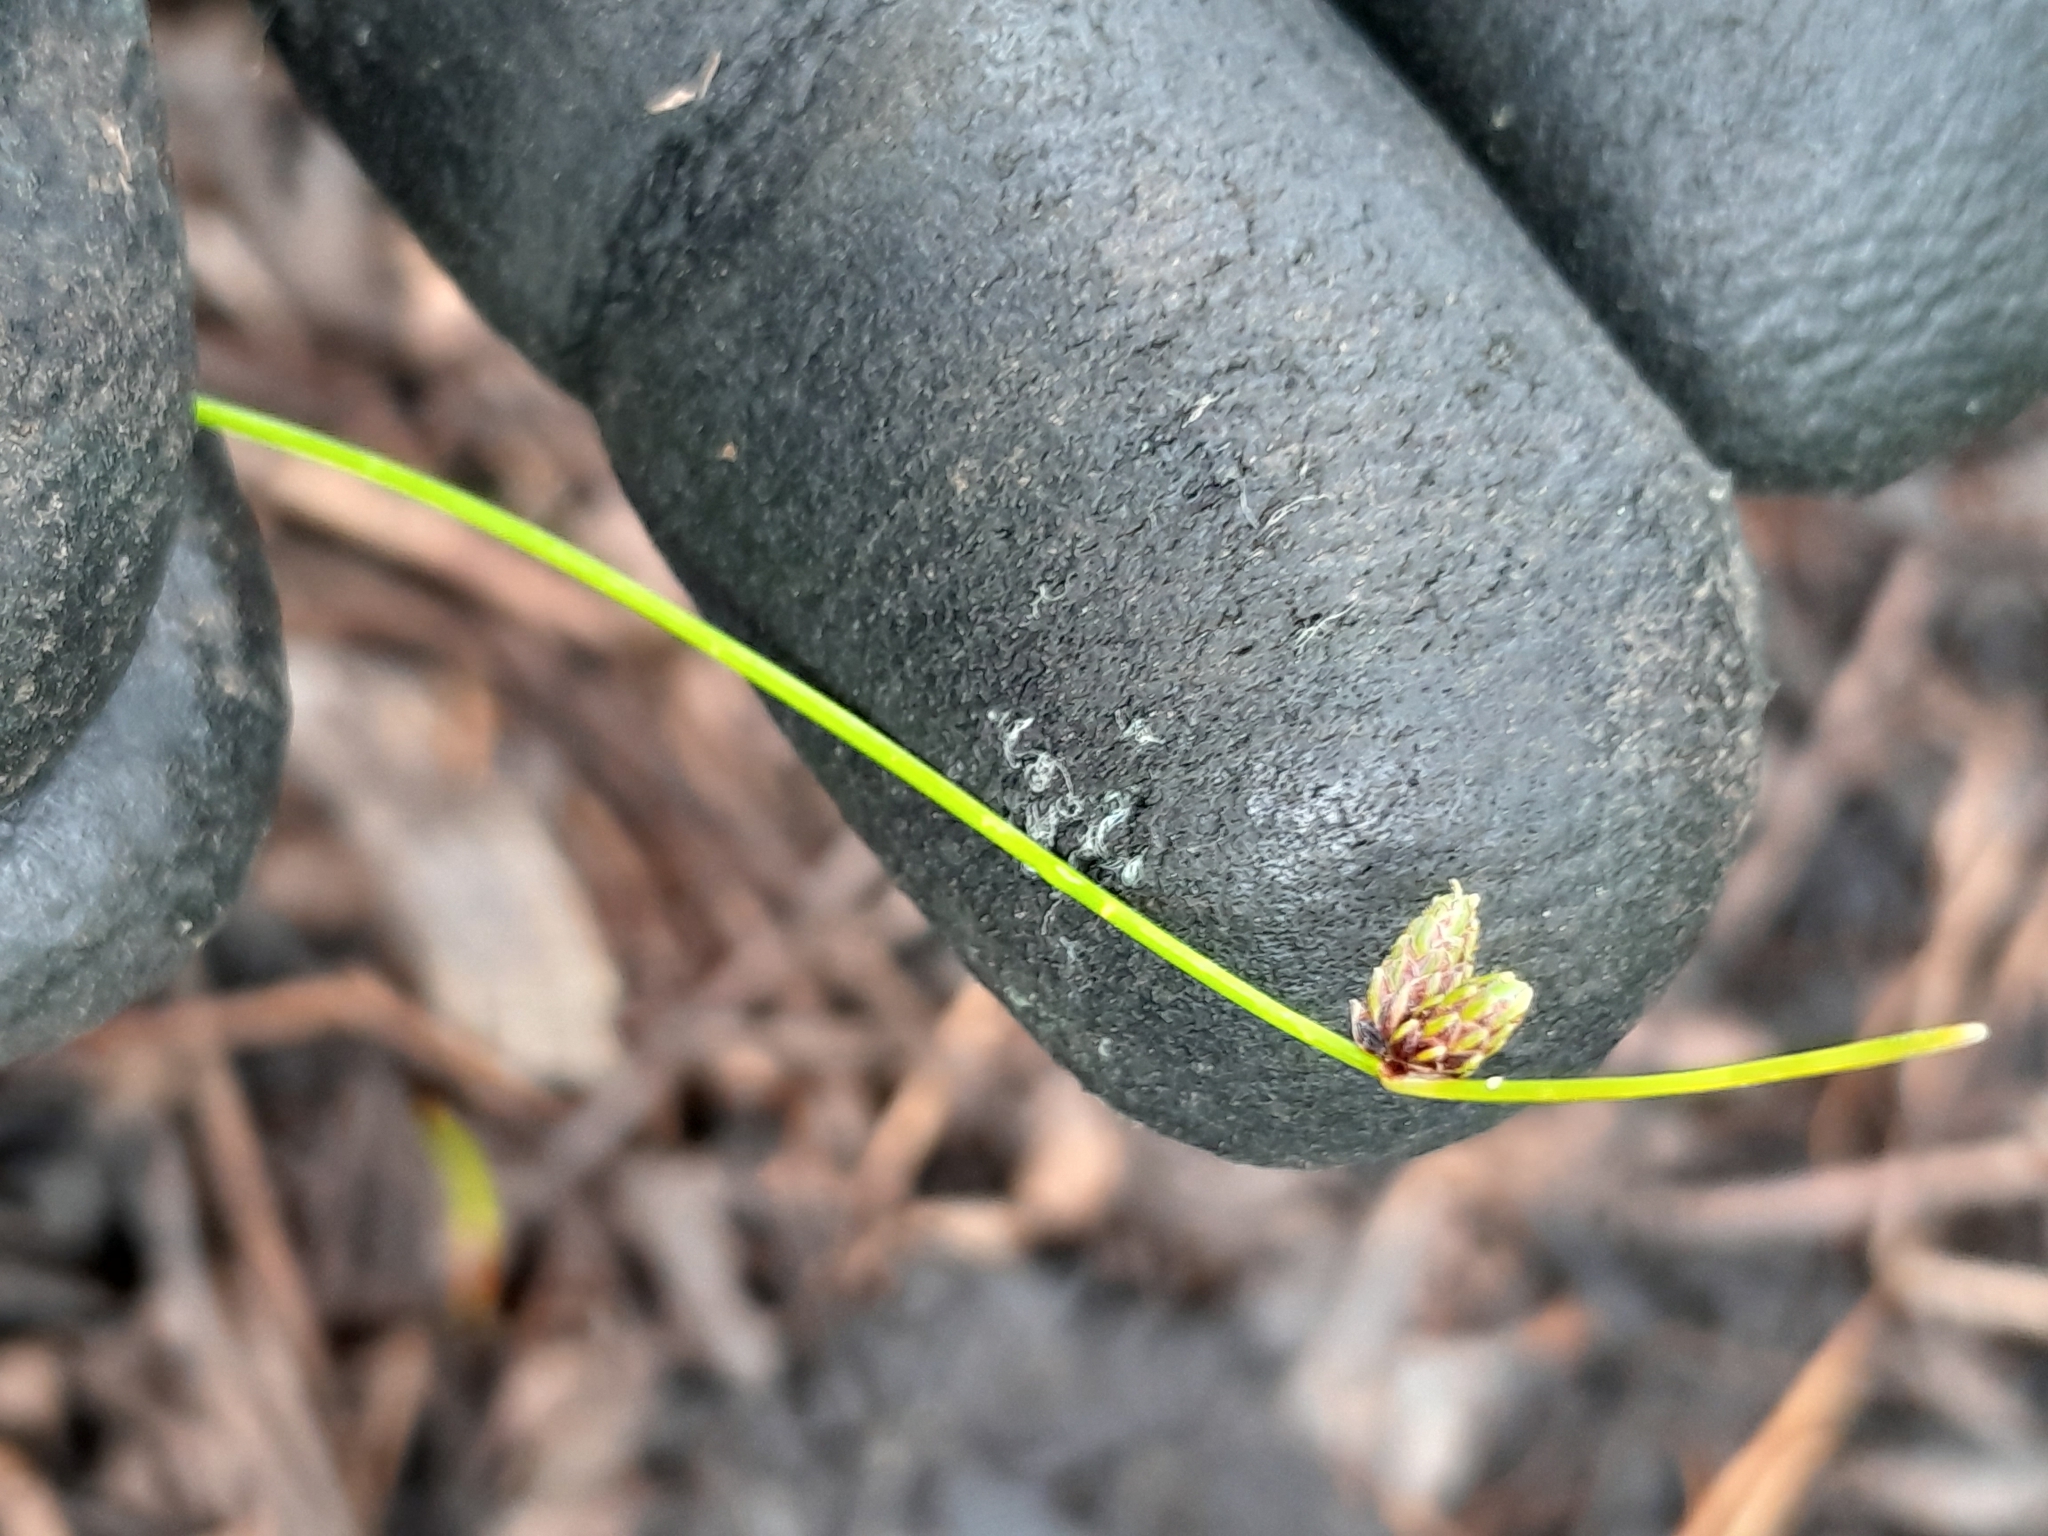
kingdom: Plantae
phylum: Tracheophyta
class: Liliopsida
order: Poales
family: Cyperaceae
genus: Isolepis
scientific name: Isolepis cernua
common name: Slender club-rush
